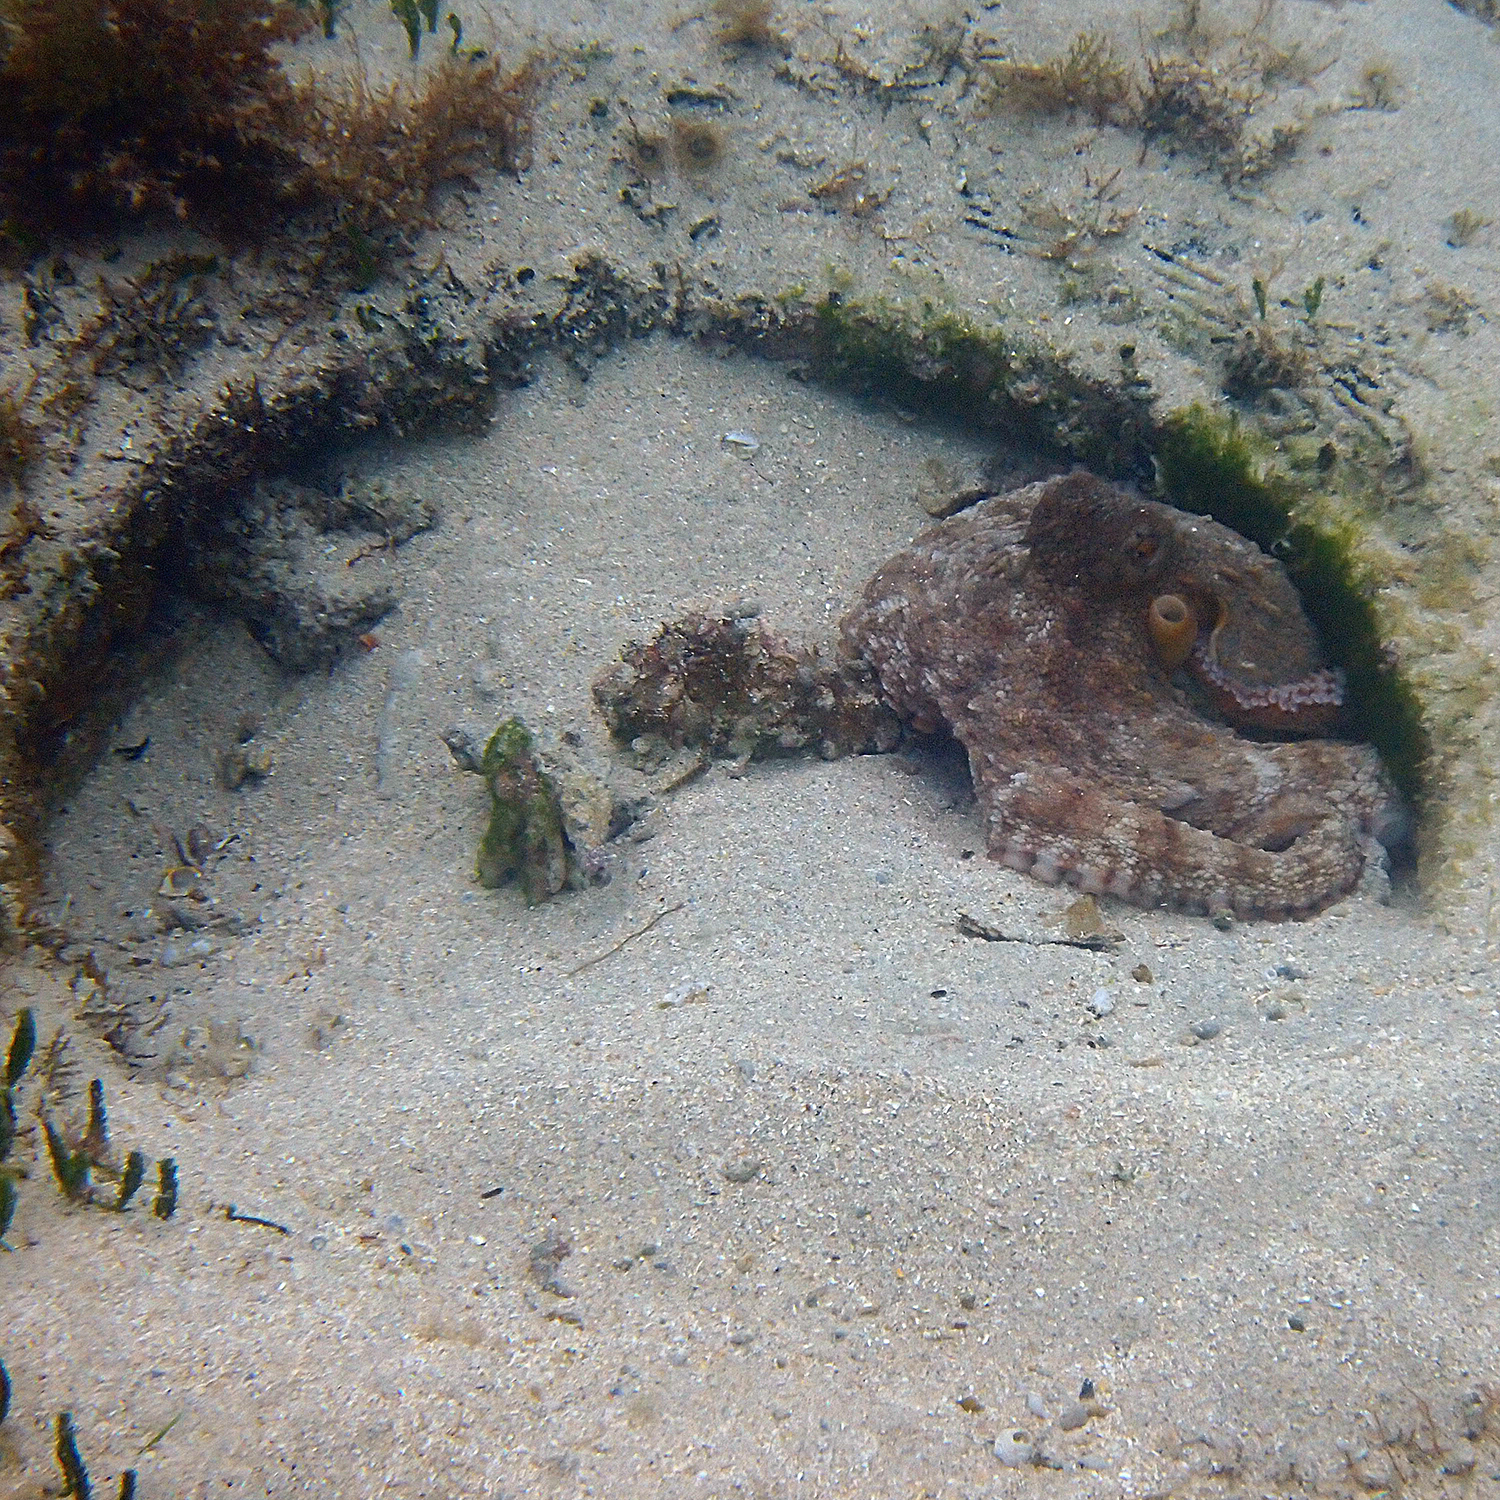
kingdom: Animalia
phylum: Mollusca
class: Cephalopoda
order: Octopoda
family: Octopodidae
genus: Octopus
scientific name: Octopus tetricus
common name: Sydney octopus
